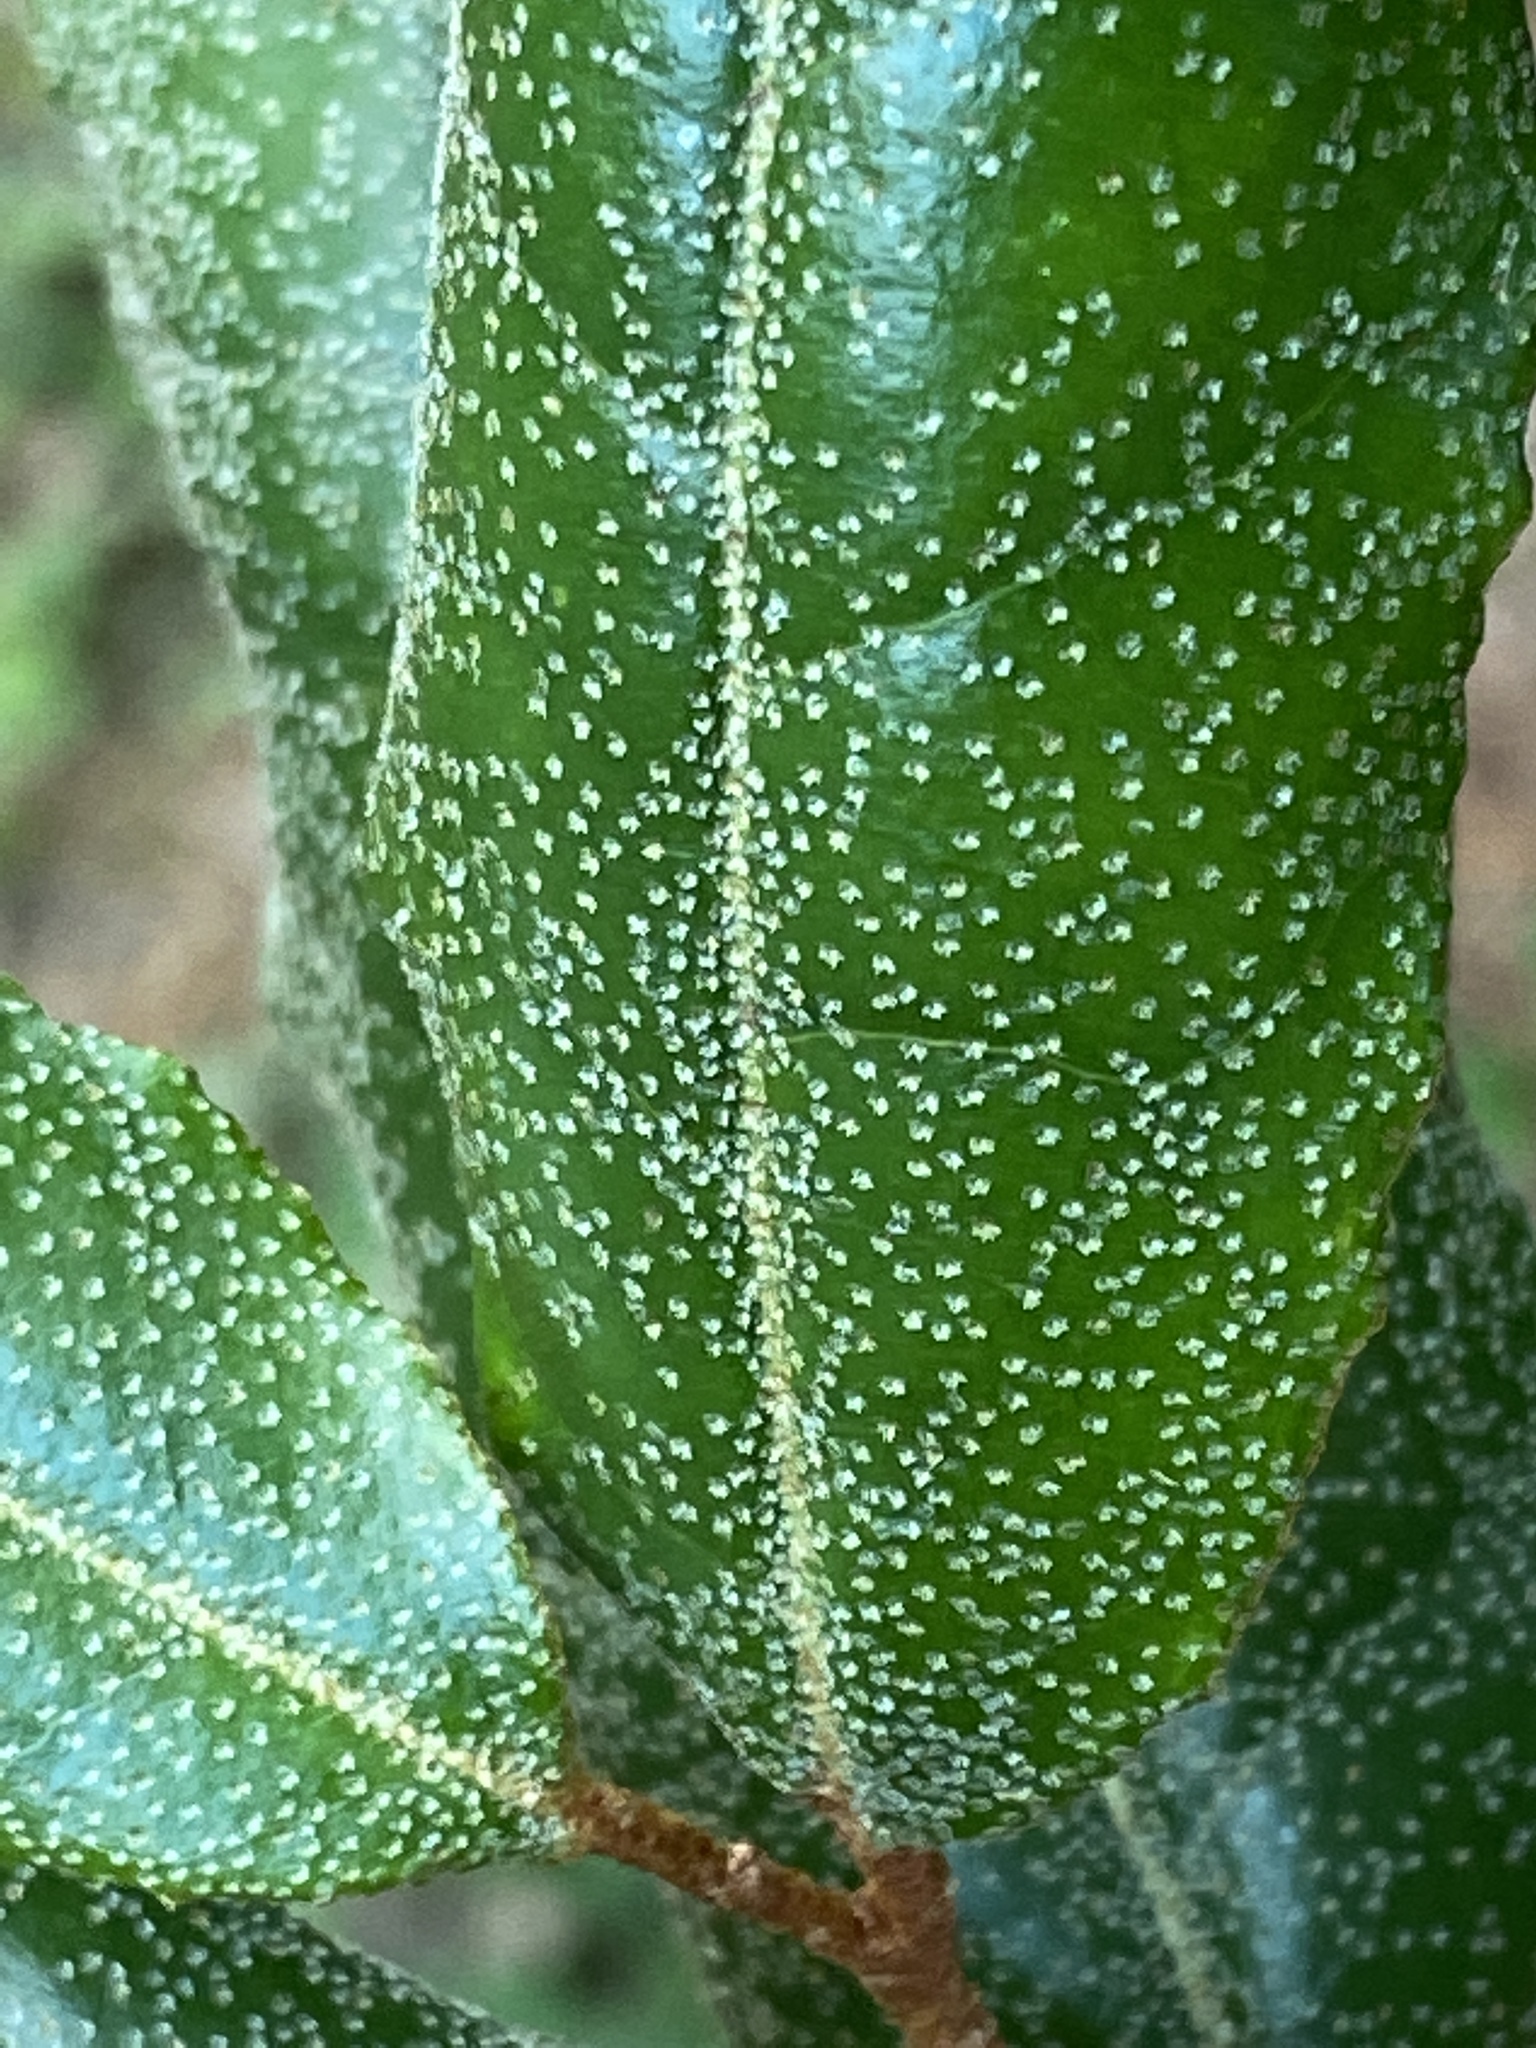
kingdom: Plantae
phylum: Tracheophyta
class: Magnoliopsida
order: Rosales
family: Elaeagnaceae
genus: Elaeagnus
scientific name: Elaeagnus pungens
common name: Spiny oleaster
